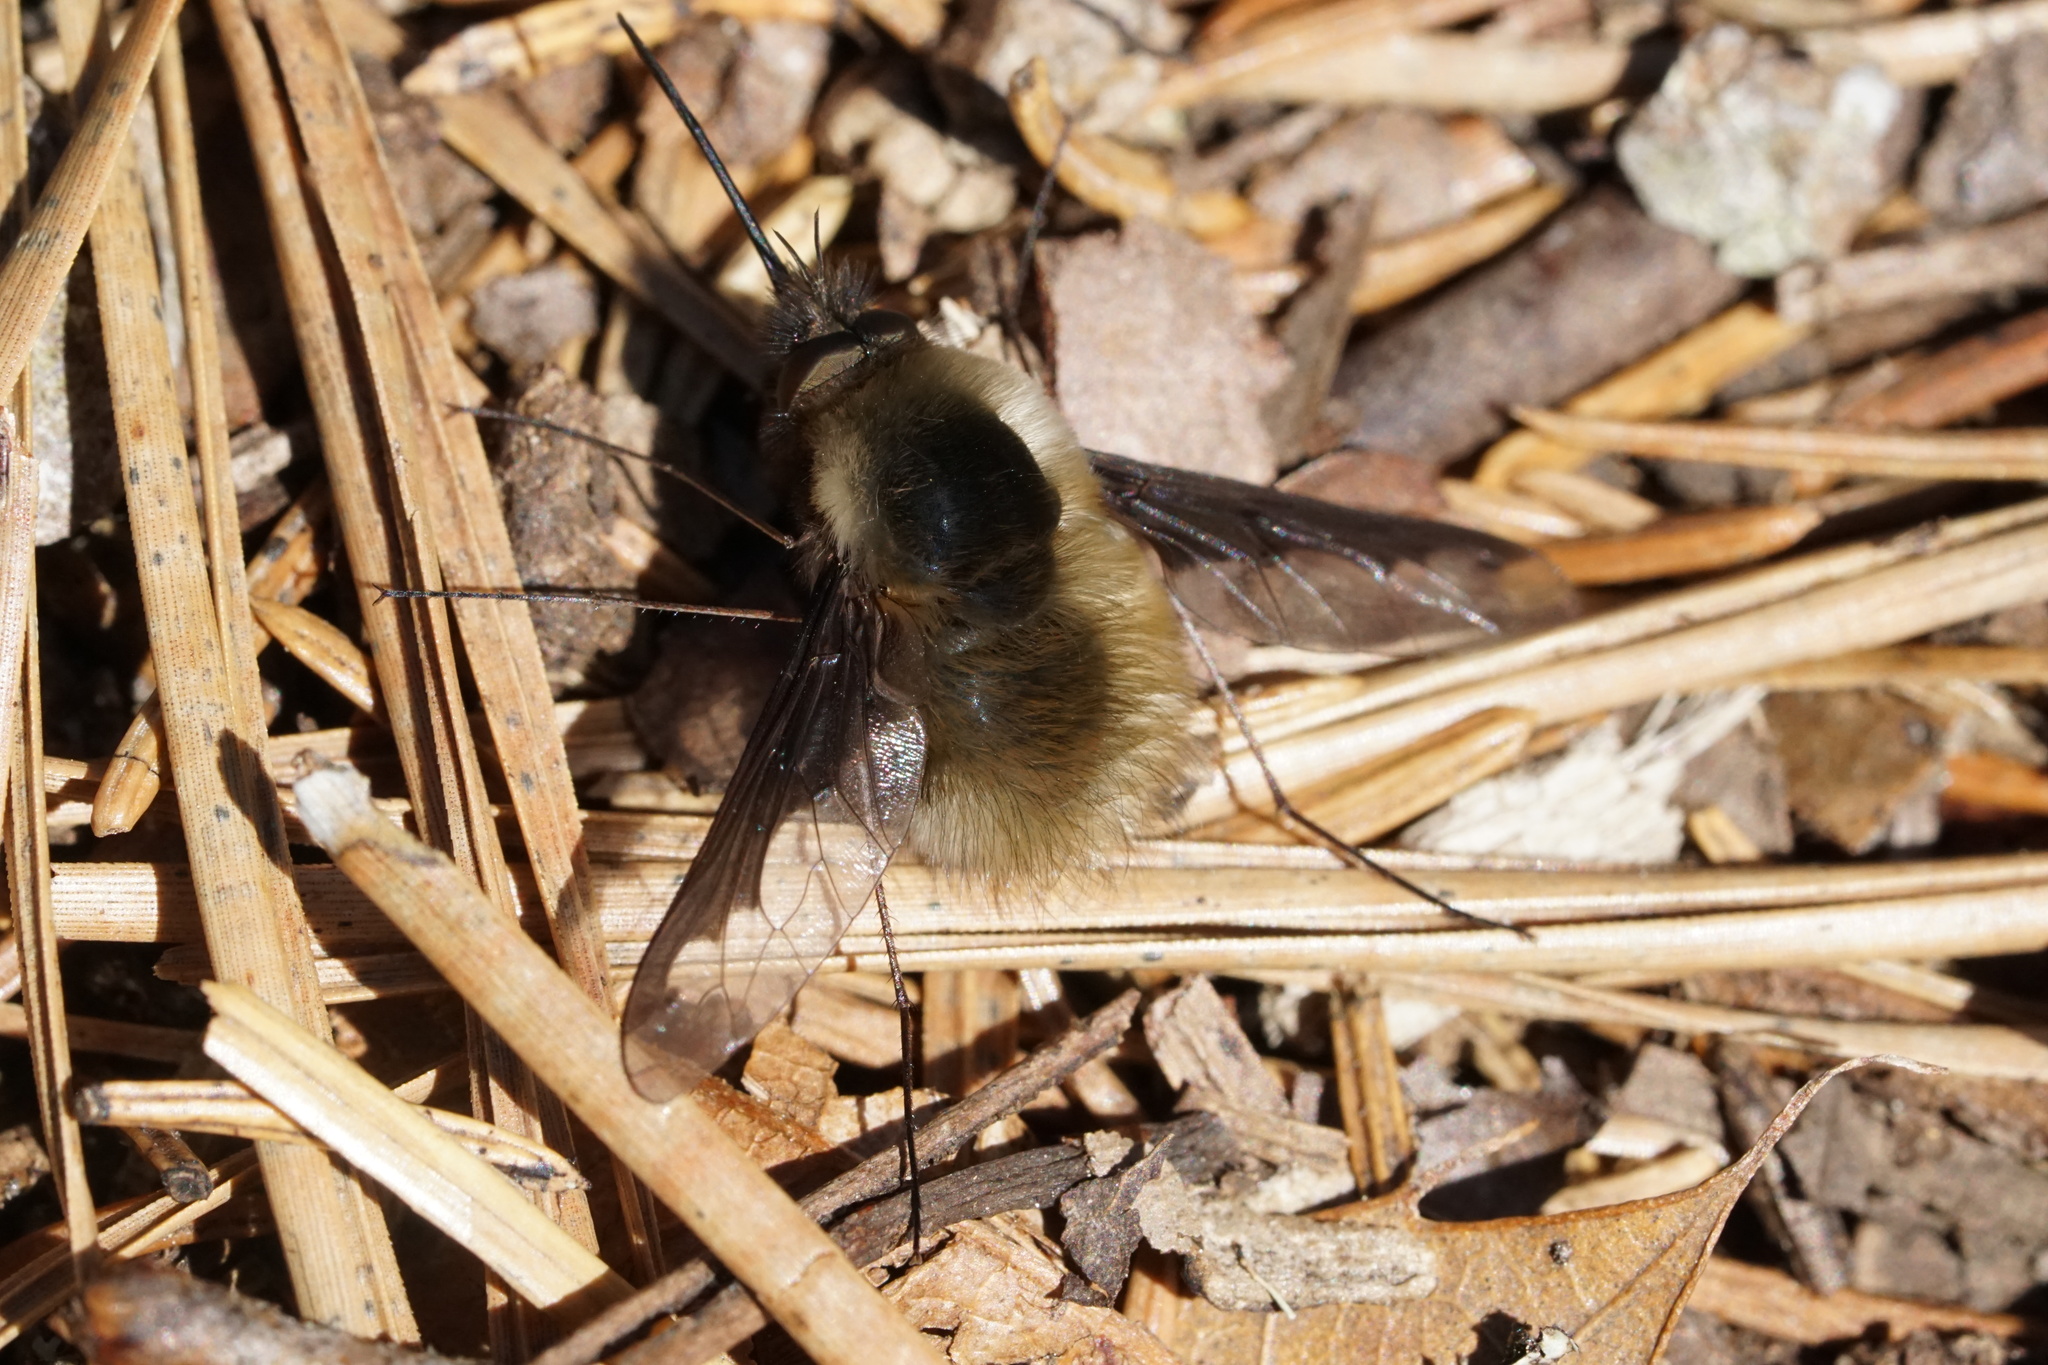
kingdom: Animalia
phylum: Arthropoda
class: Insecta
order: Diptera
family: Bombyliidae
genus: Bombylius
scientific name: Bombylius major
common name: Bee fly
